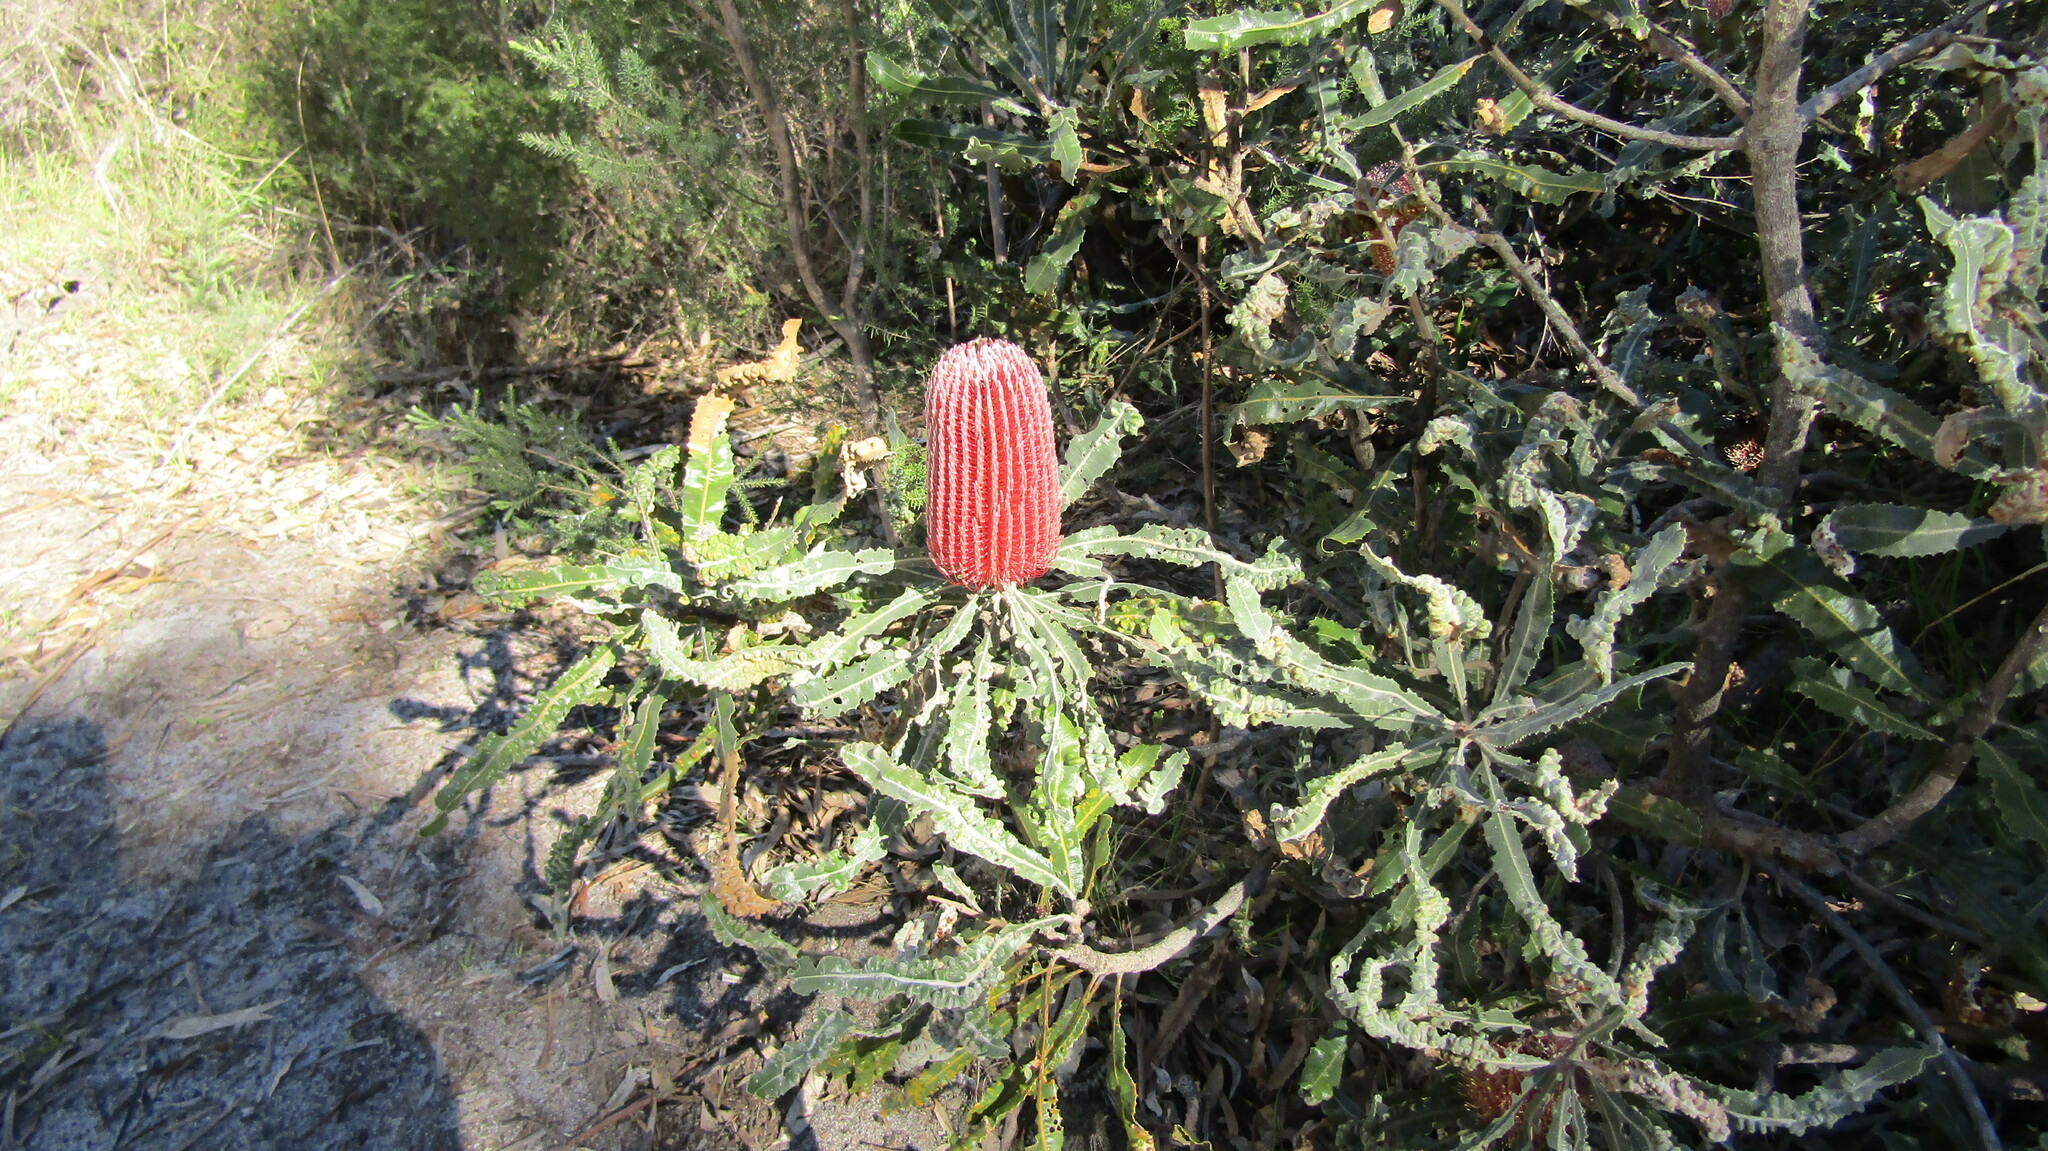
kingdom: Plantae
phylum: Tracheophyta
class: Magnoliopsida
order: Proteales
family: Proteaceae
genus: Banksia
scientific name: Banksia menziesii
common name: Menzie's banksia
